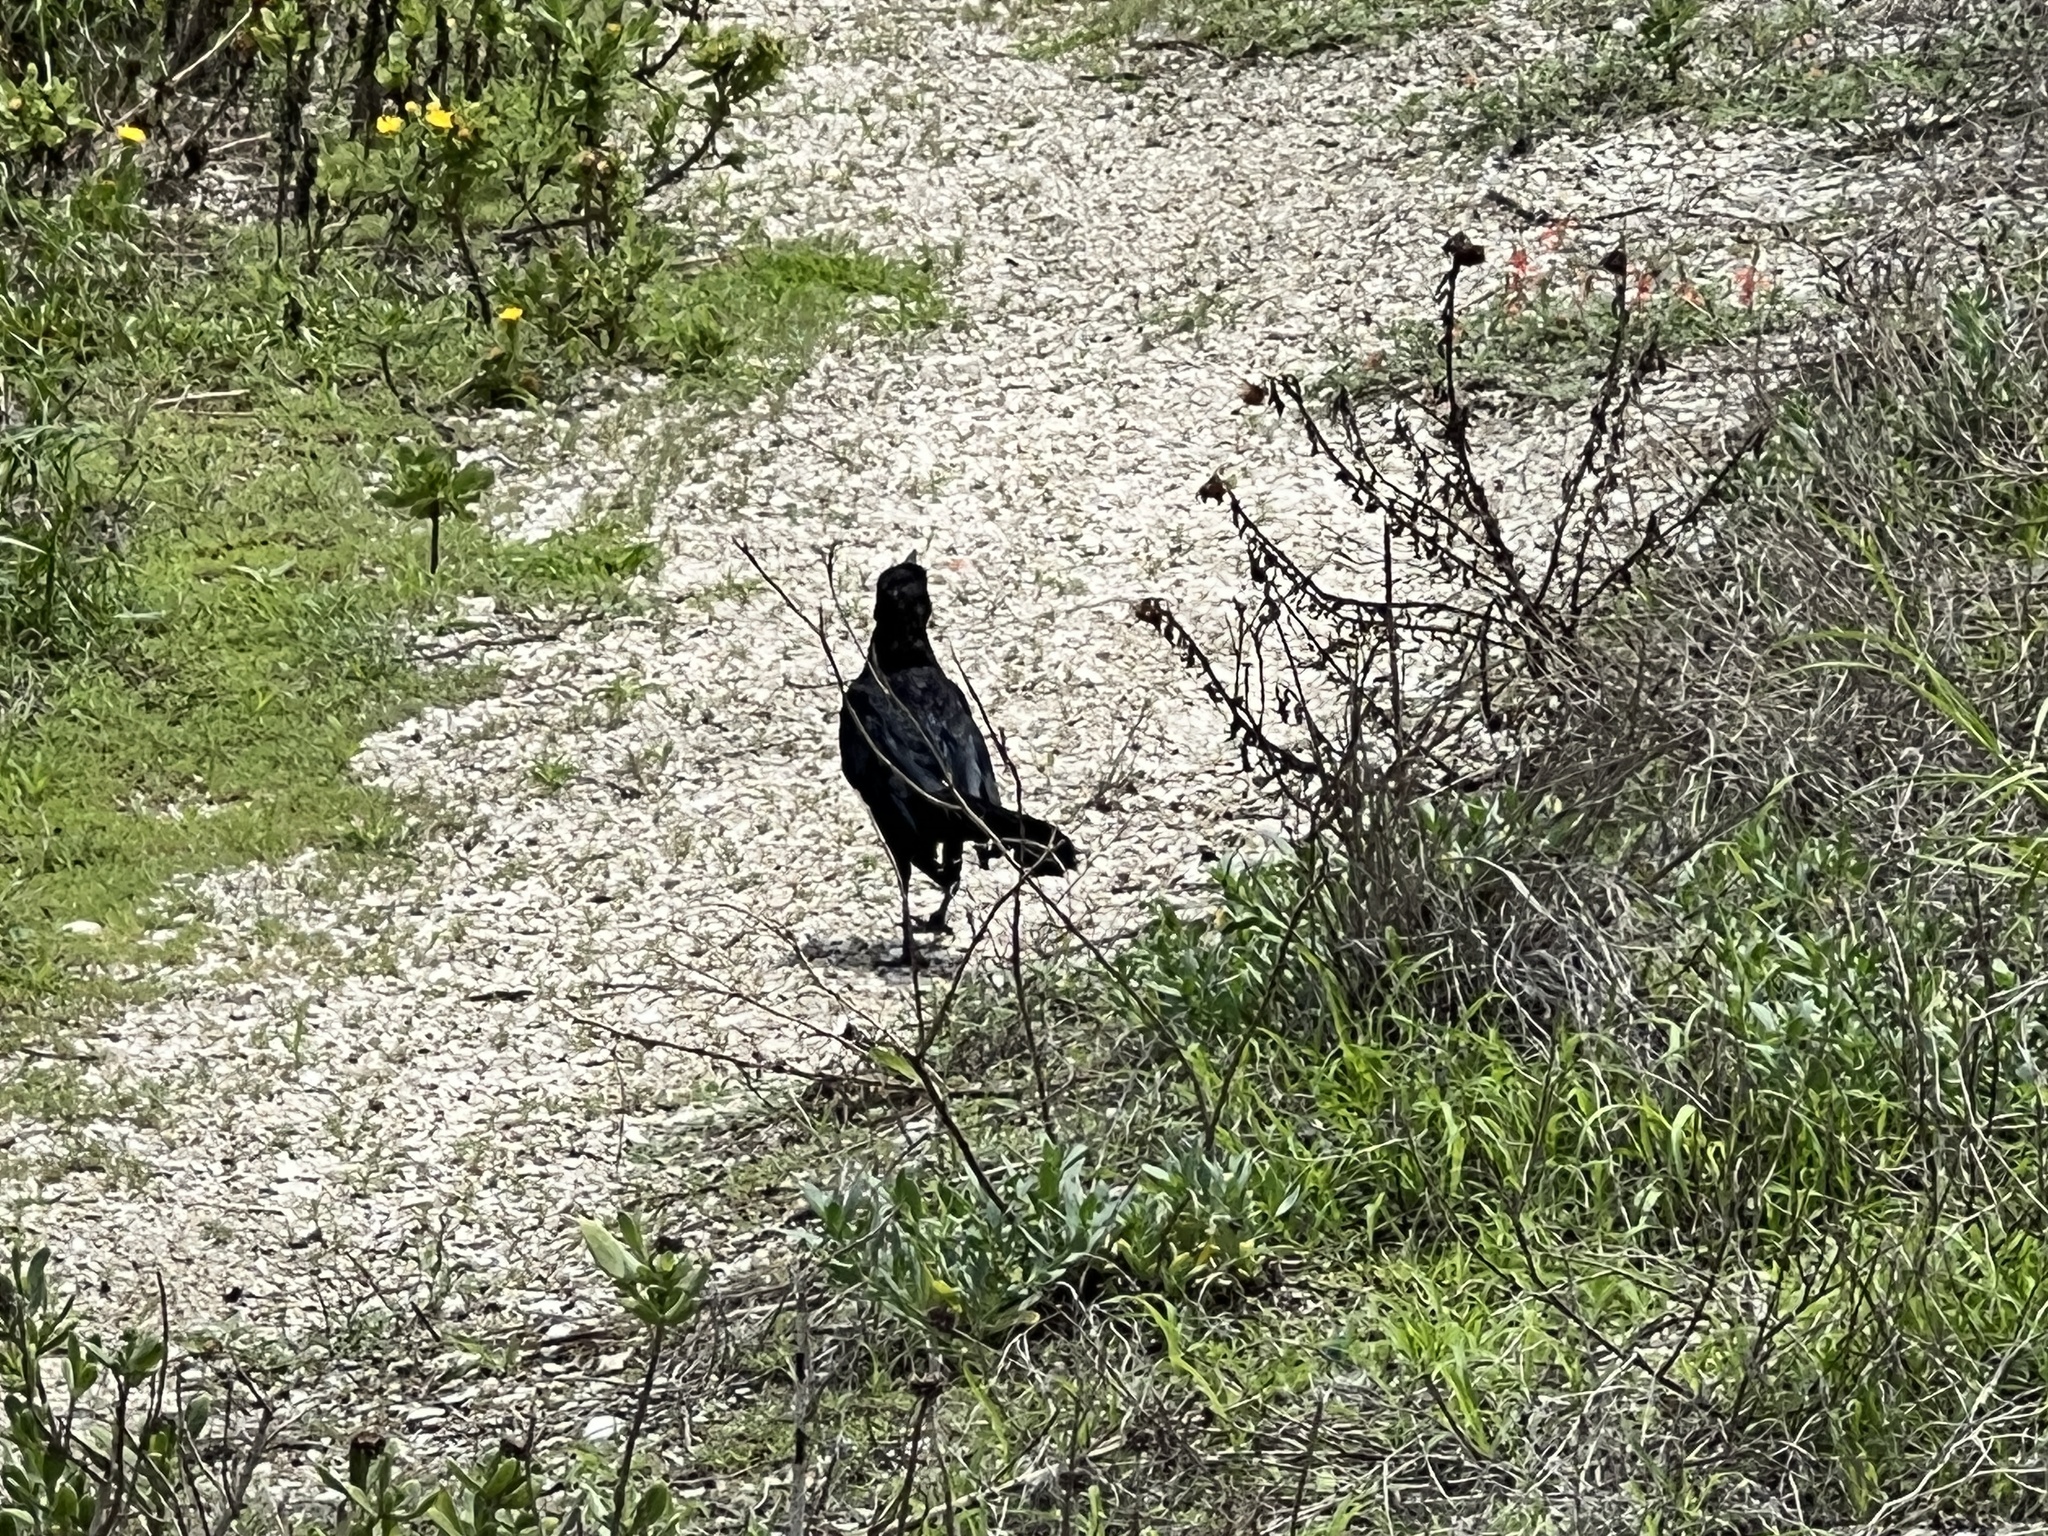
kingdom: Animalia
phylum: Chordata
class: Aves
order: Passeriformes
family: Icteridae
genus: Quiscalus
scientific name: Quiscalus mexicanus
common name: Great-tailed grackle
